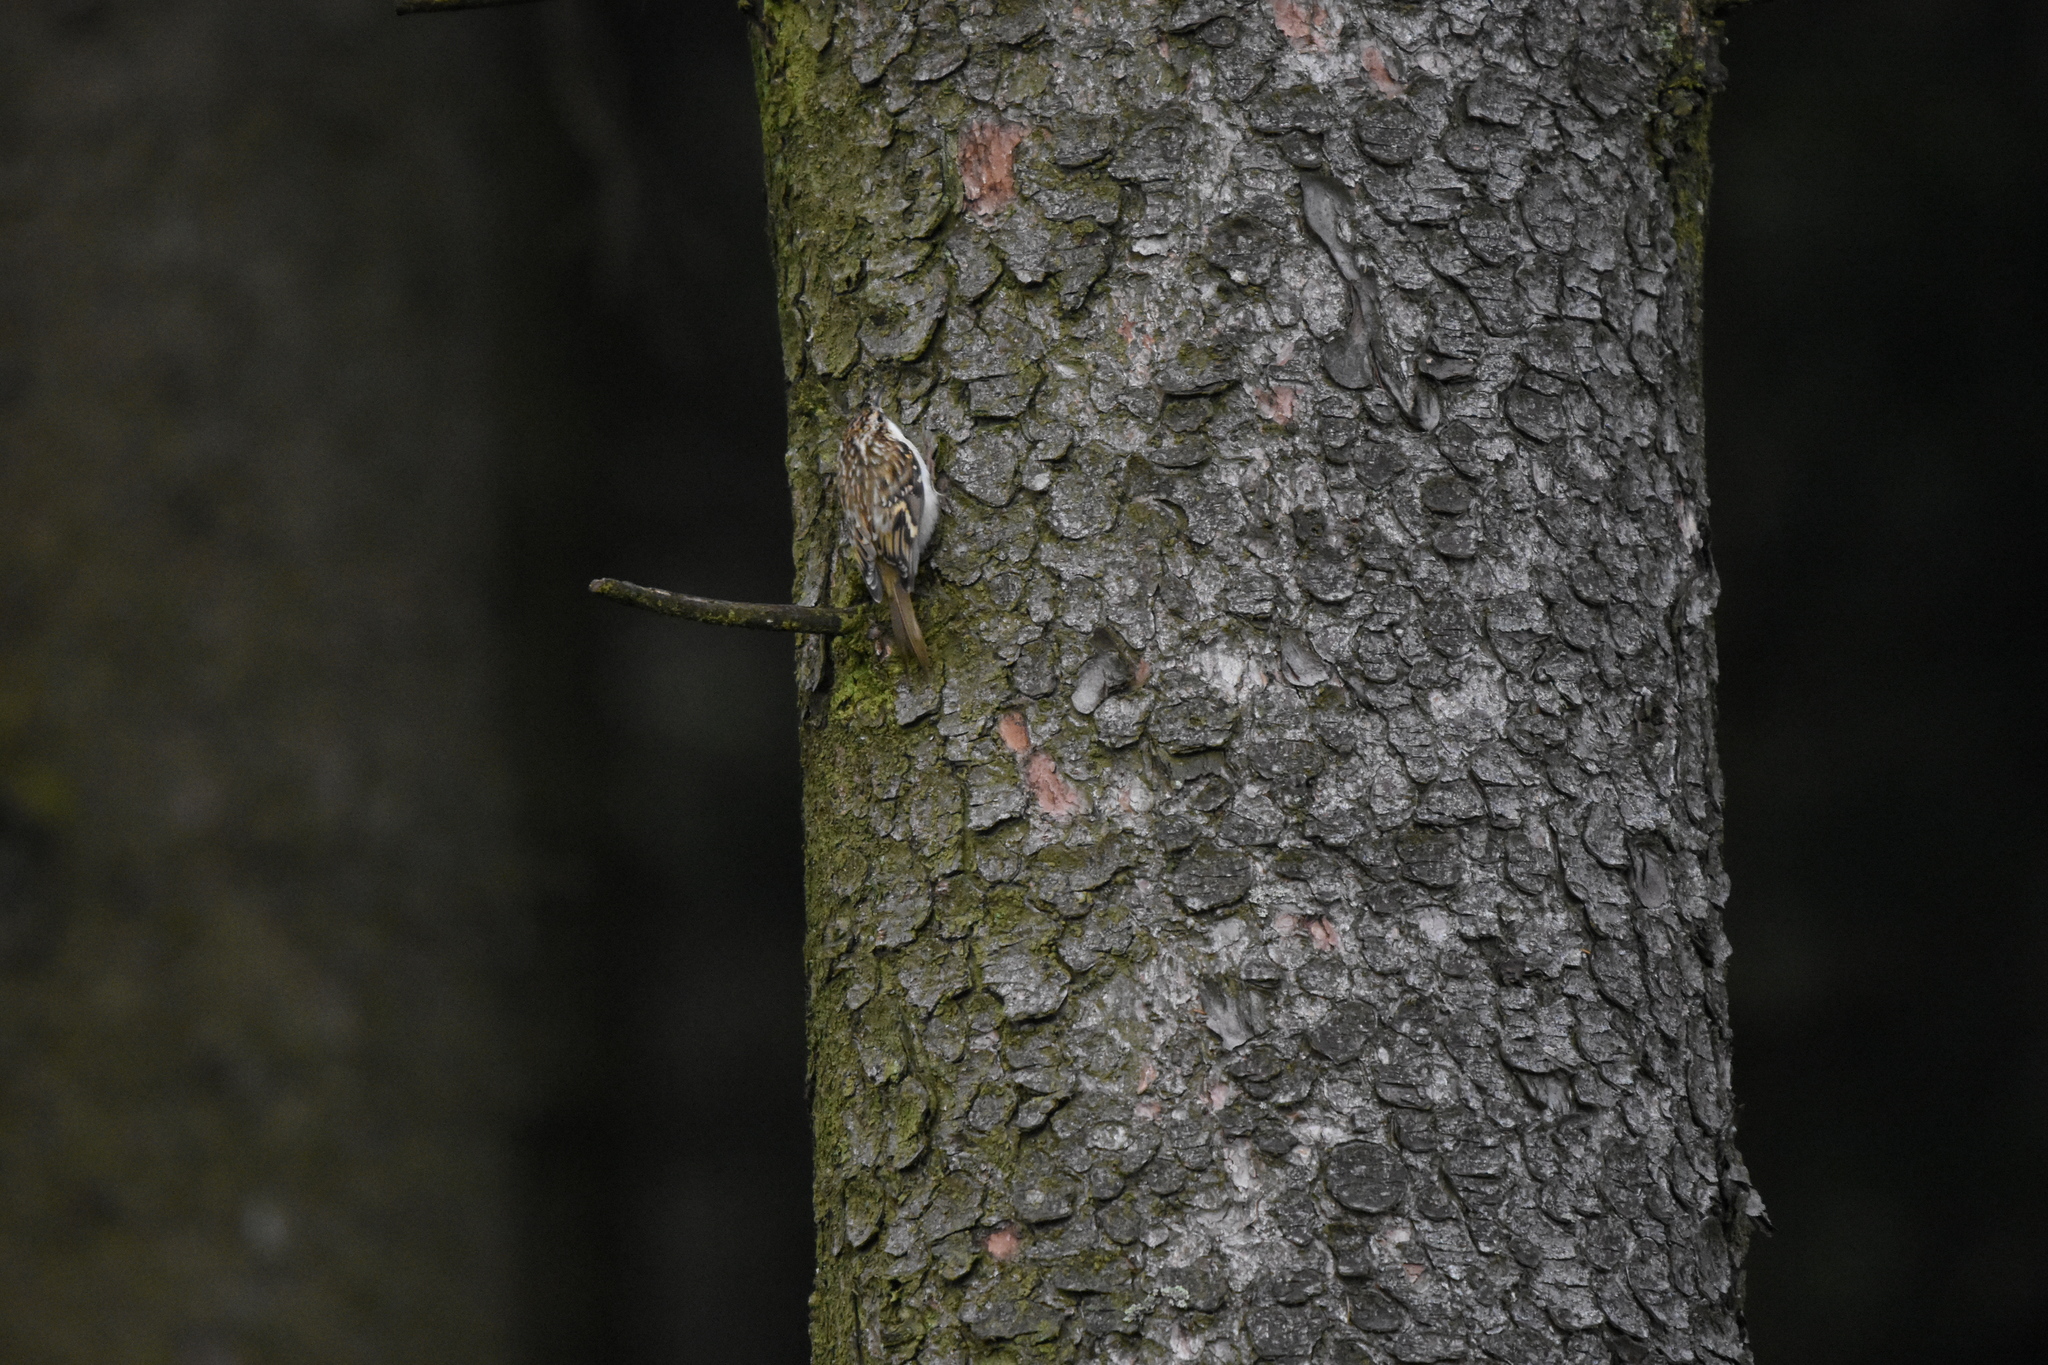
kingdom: Animalia
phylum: Chordata
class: Aves
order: Passeriformes
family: Certhiidae
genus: Certhia
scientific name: Certhia familiaris
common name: Eurasian treecreeper
